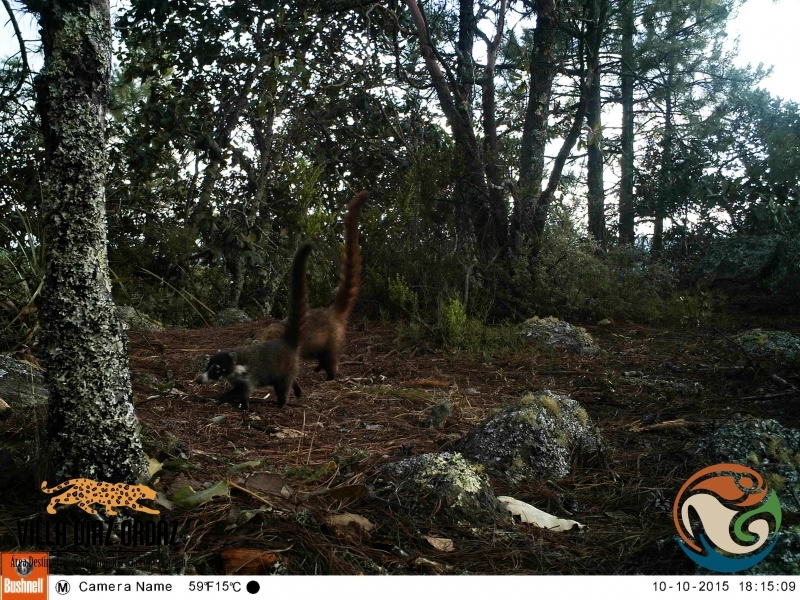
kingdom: Animalia
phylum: Chordata
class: Mammalia
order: Carnivora
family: Procyonidae
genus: Nasua
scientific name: Nasua narica
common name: White-nosed coati
